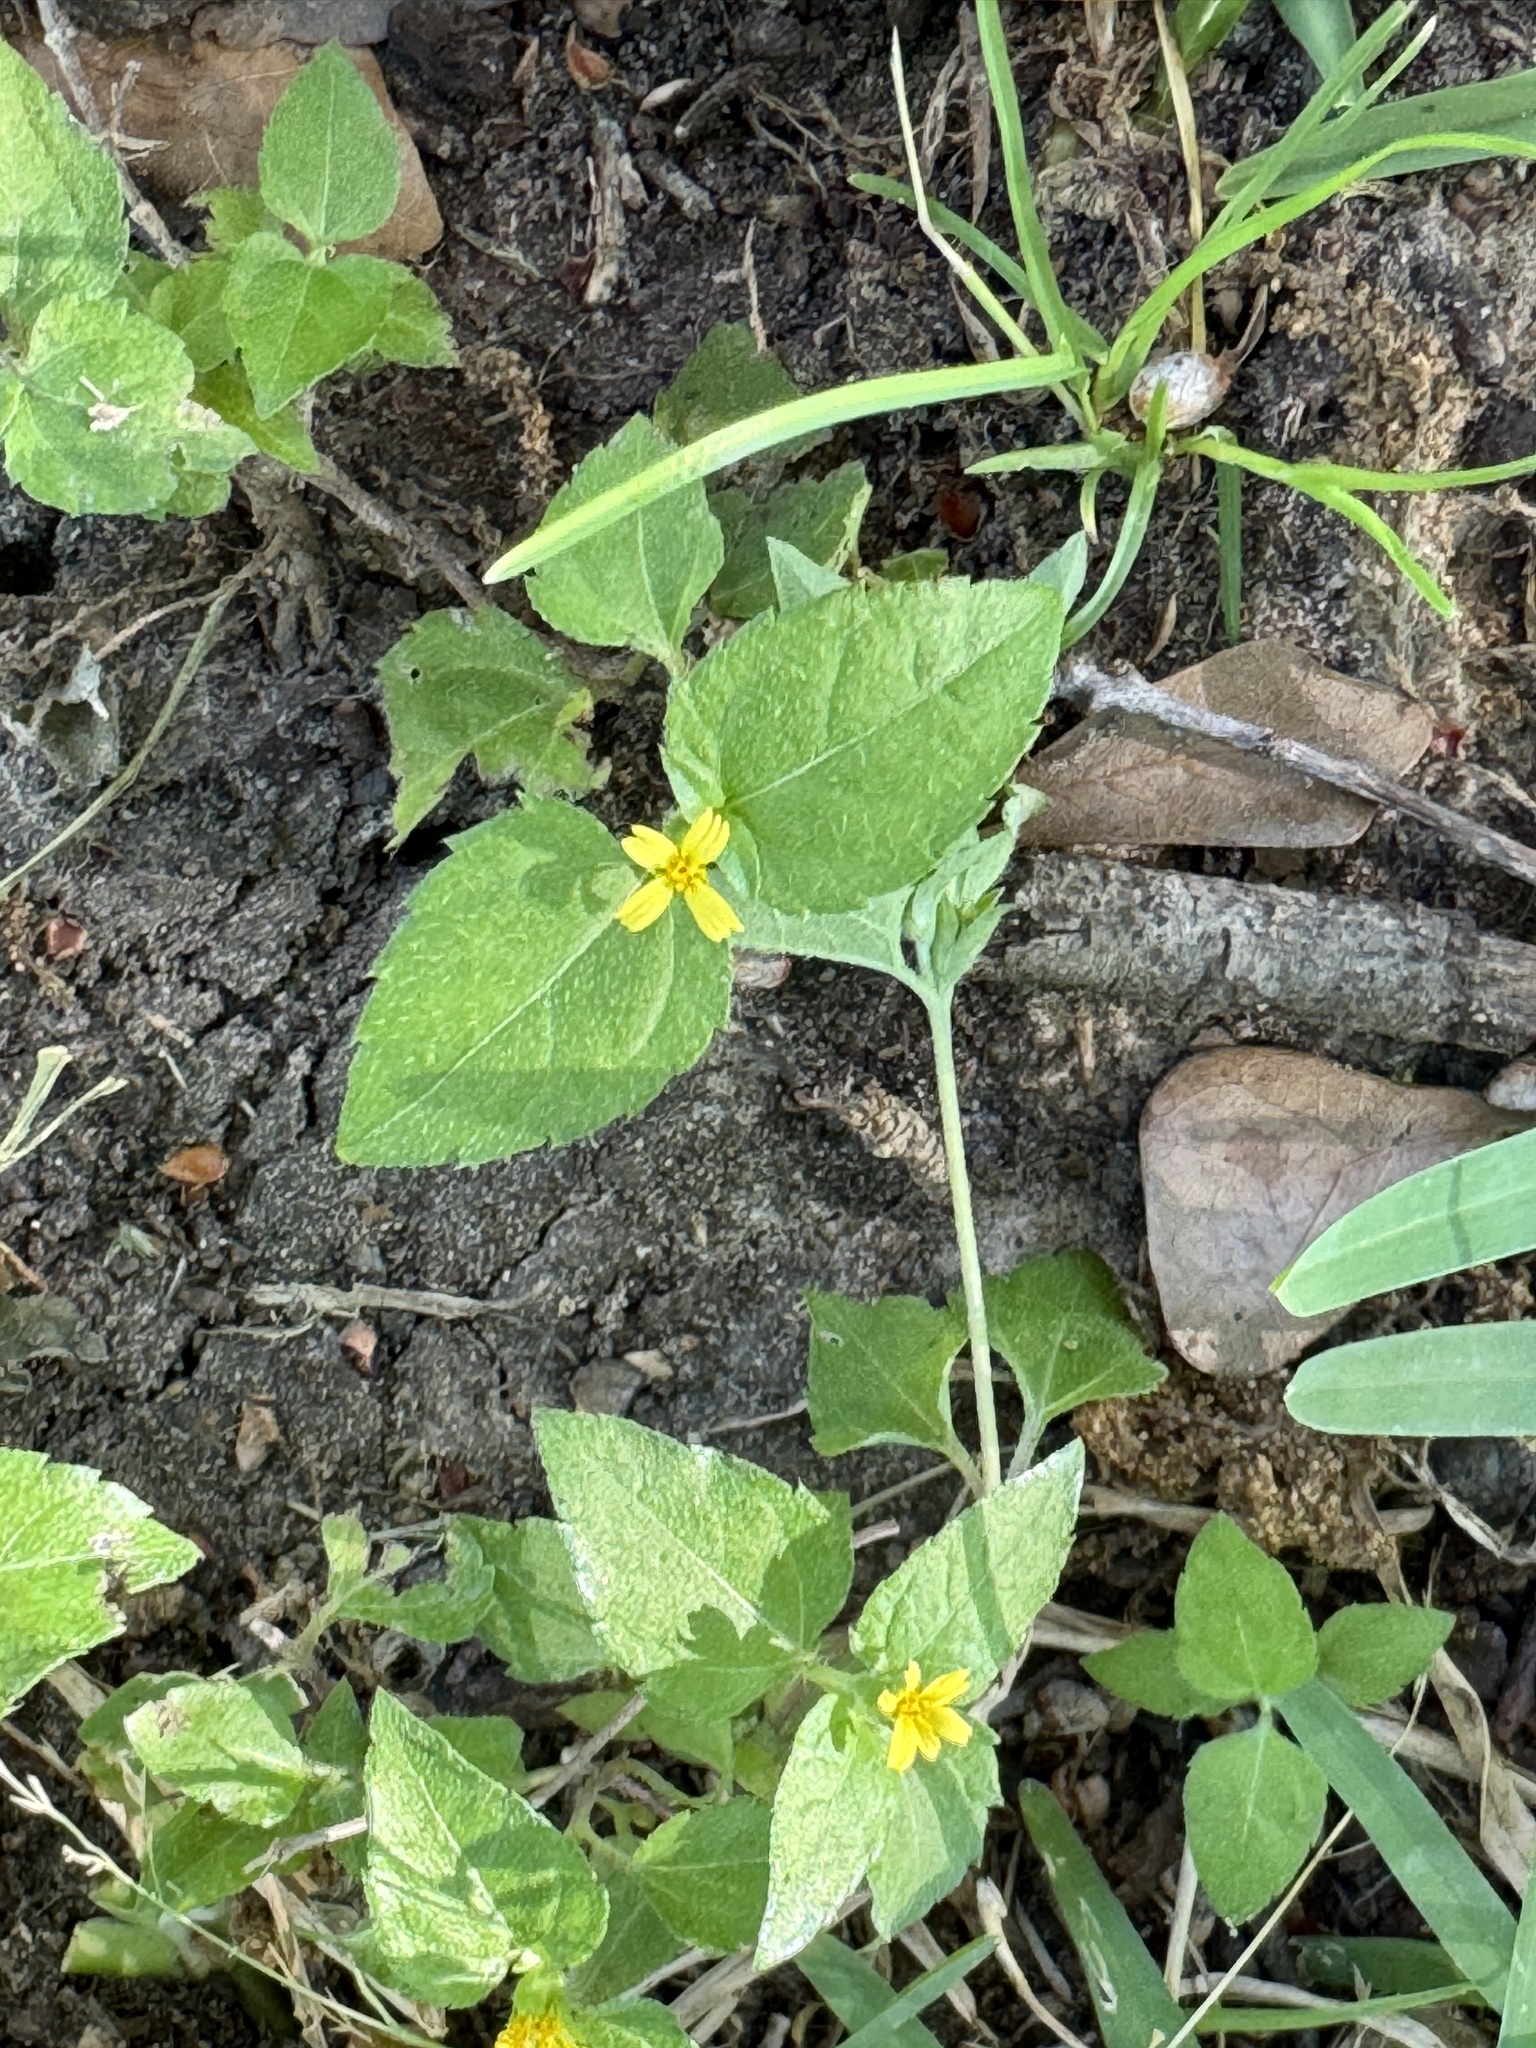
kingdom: Plantae
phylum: Tracheophyta
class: Magnoliopsida
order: Asterales
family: Asteraceae
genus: Calyptocarpus
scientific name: Calyptocarpus vialis
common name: Straggler daisy
